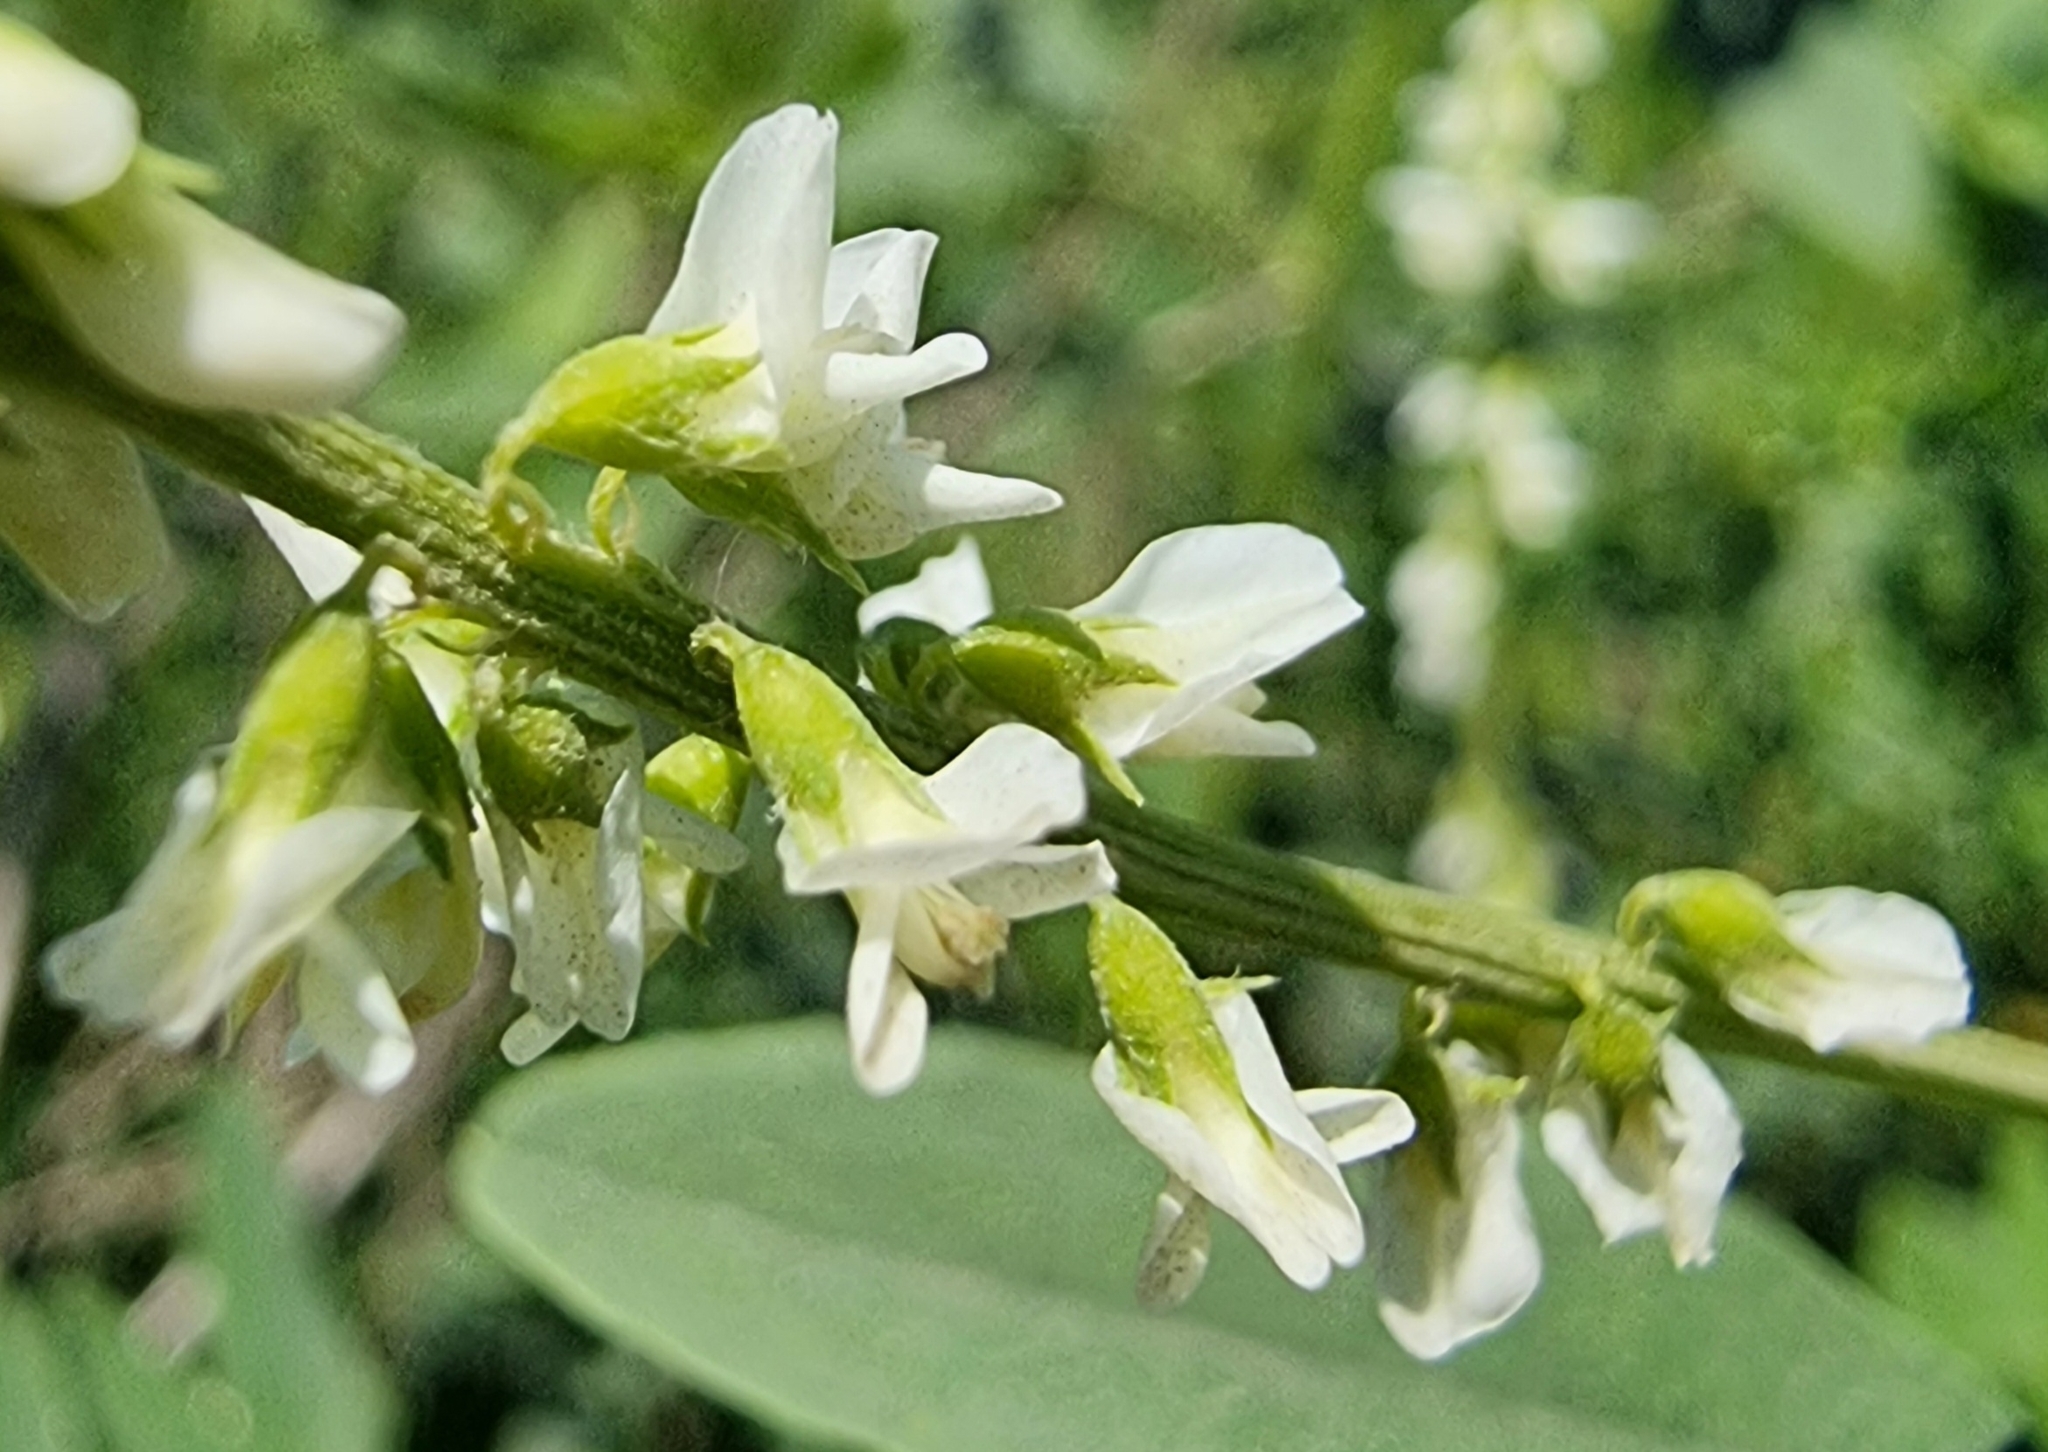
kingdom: Plantae
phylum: Tracheophyta
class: Magnoliopsida
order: Fabales
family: Fabaceae
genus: Melilotus
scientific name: Melilotus albus
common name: White melilot
